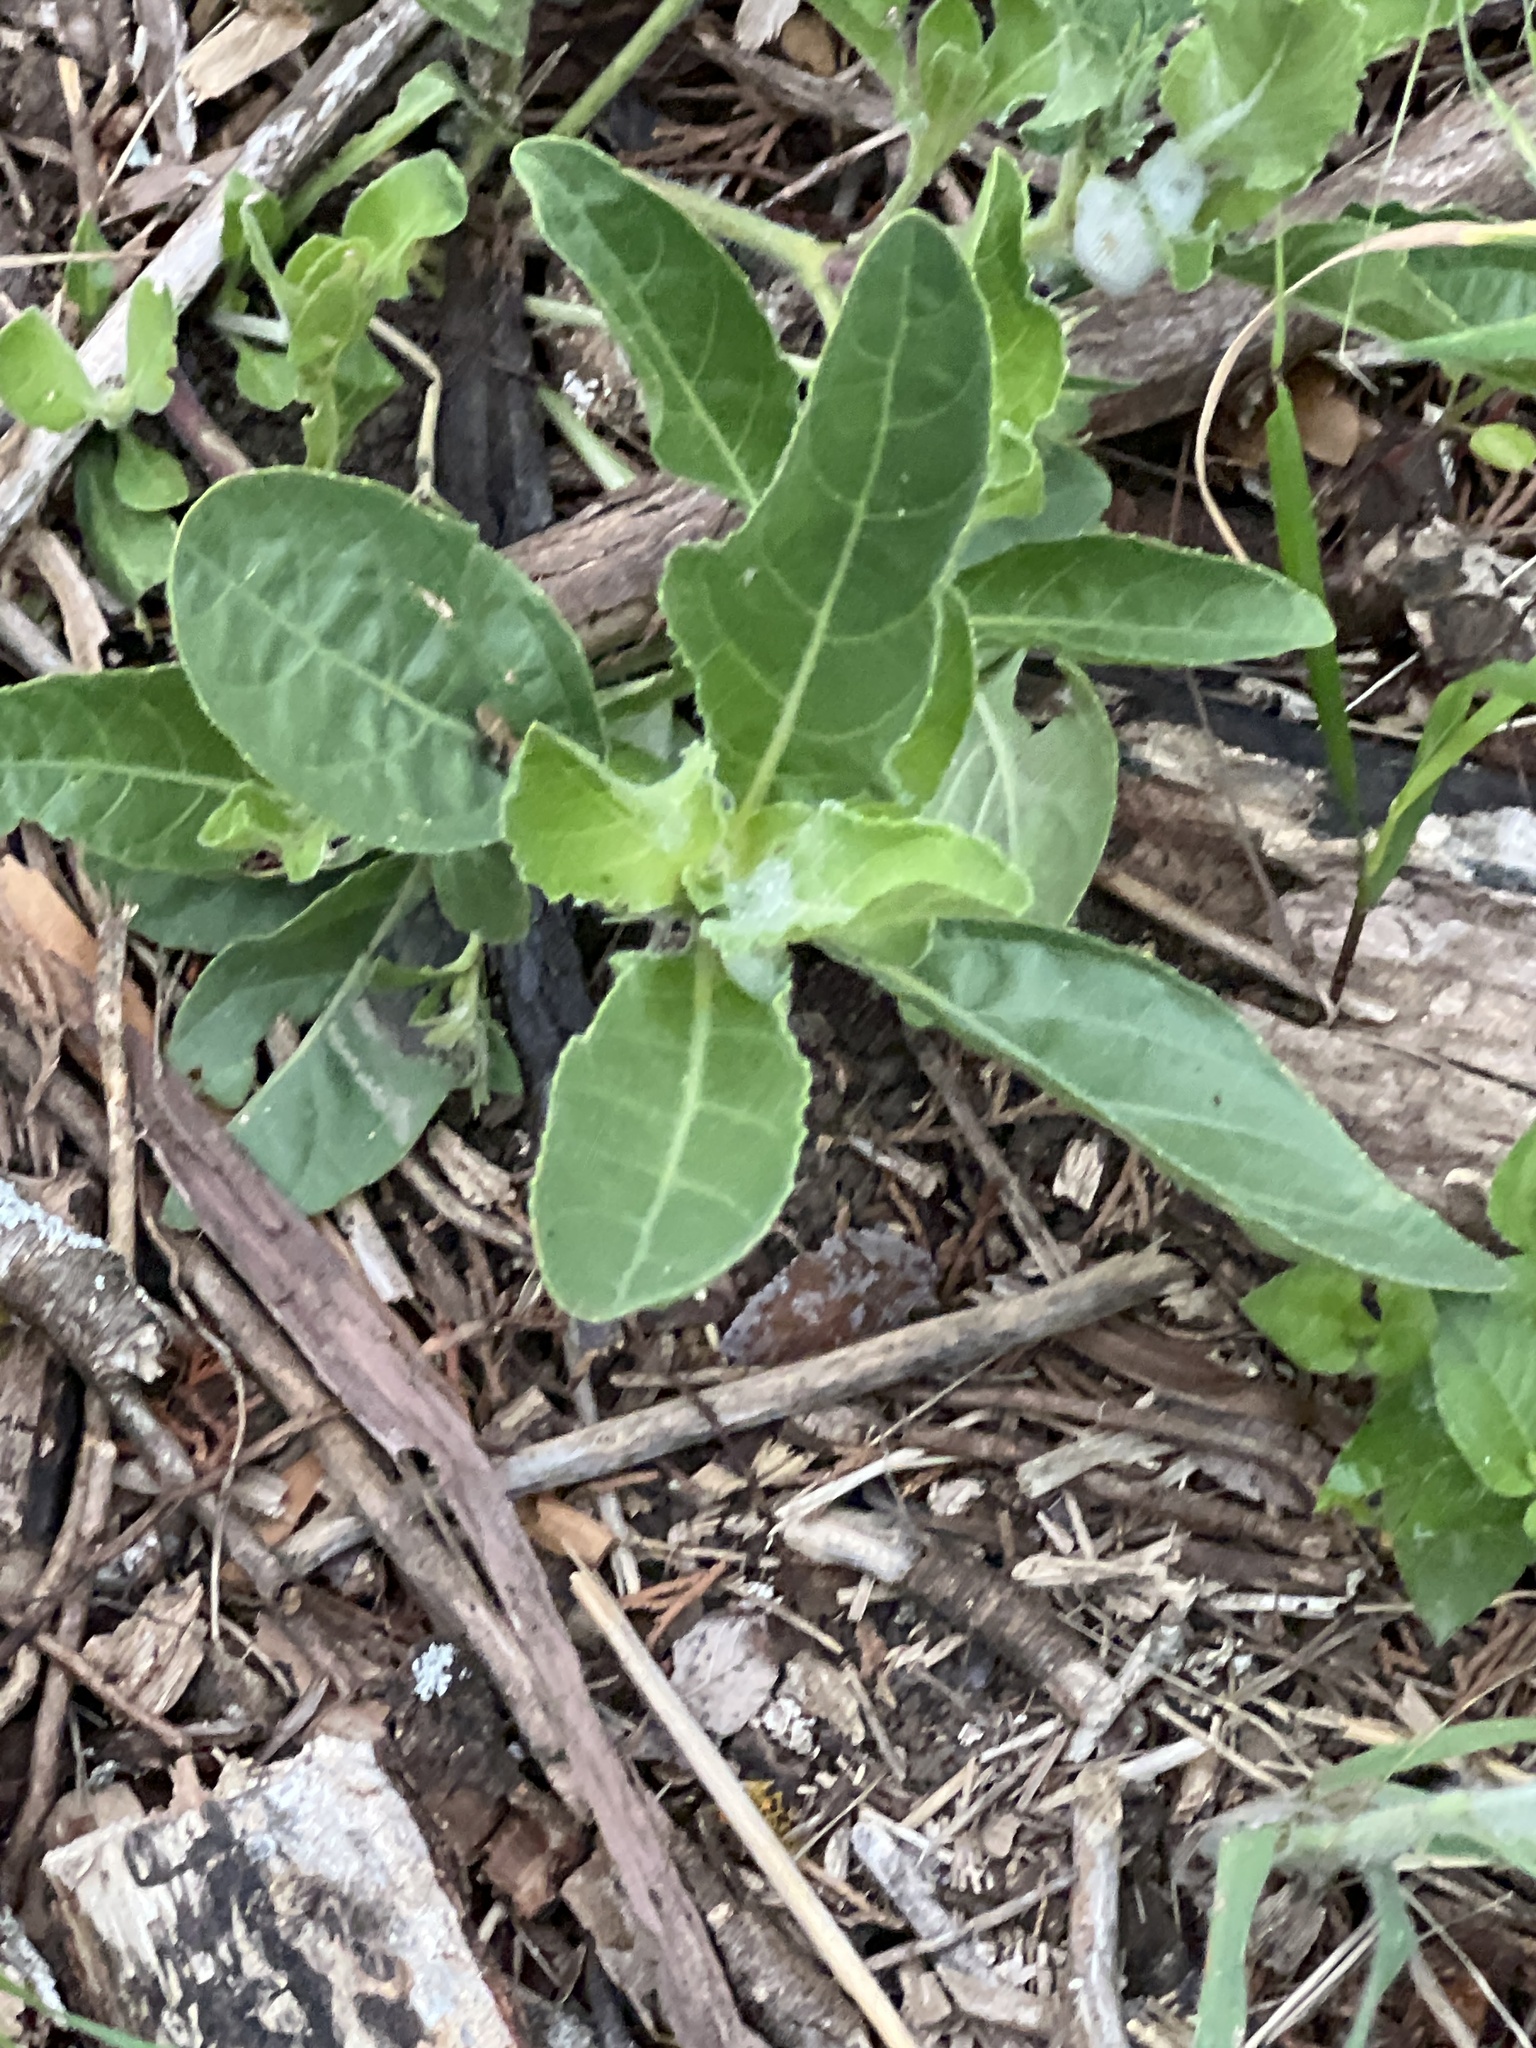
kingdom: Plantae
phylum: Tracheophyta
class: Magnoliopsida
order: Lamiales
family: Acanthaceae
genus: Ruellia
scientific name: Ruellia metziae
